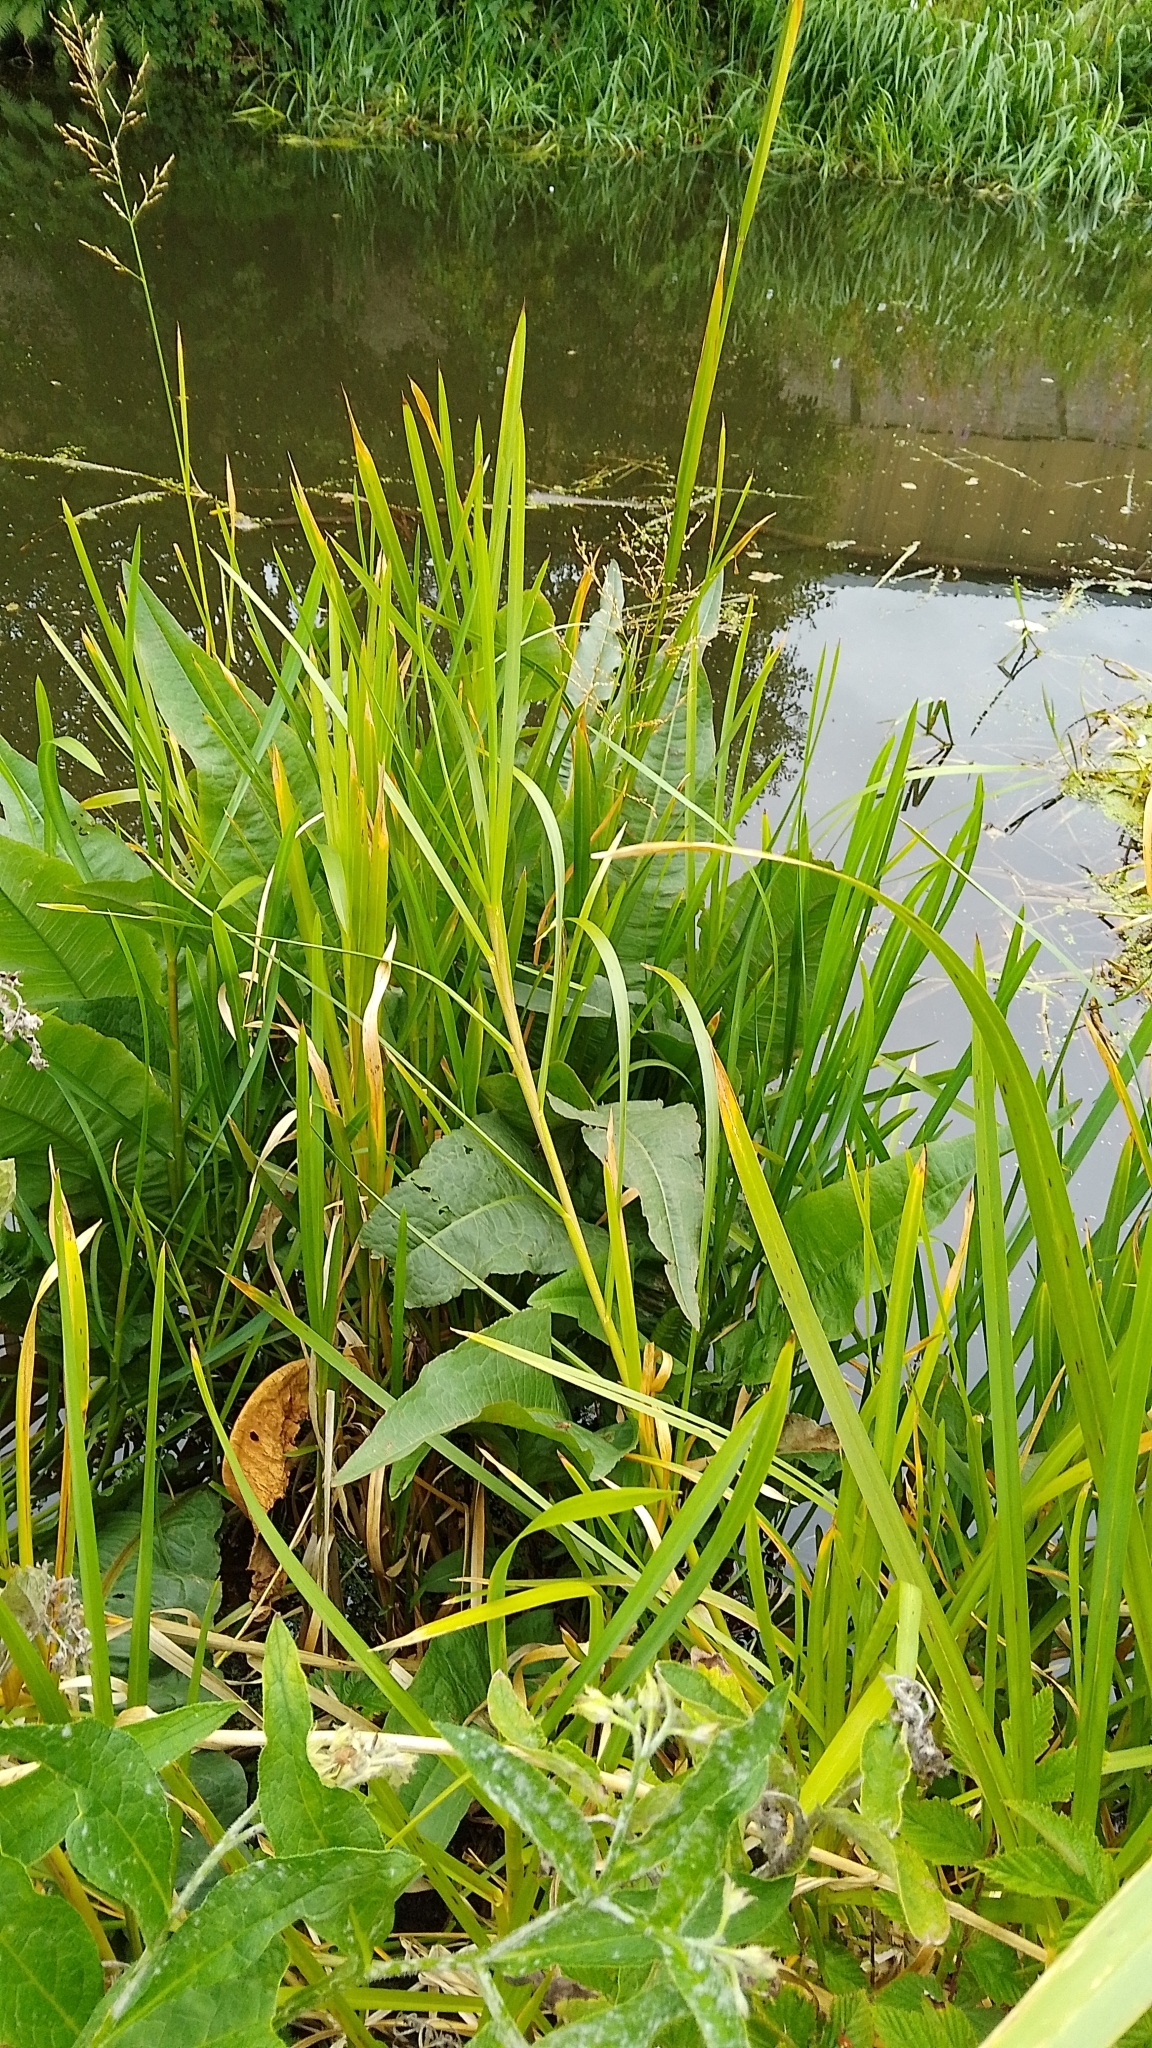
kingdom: Plantae
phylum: Tracheophyta
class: Magnoliopsida
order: Caryophyllales
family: Polygonaceae
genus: Rumex
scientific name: Rumex hydrolapathum
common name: Water dock
